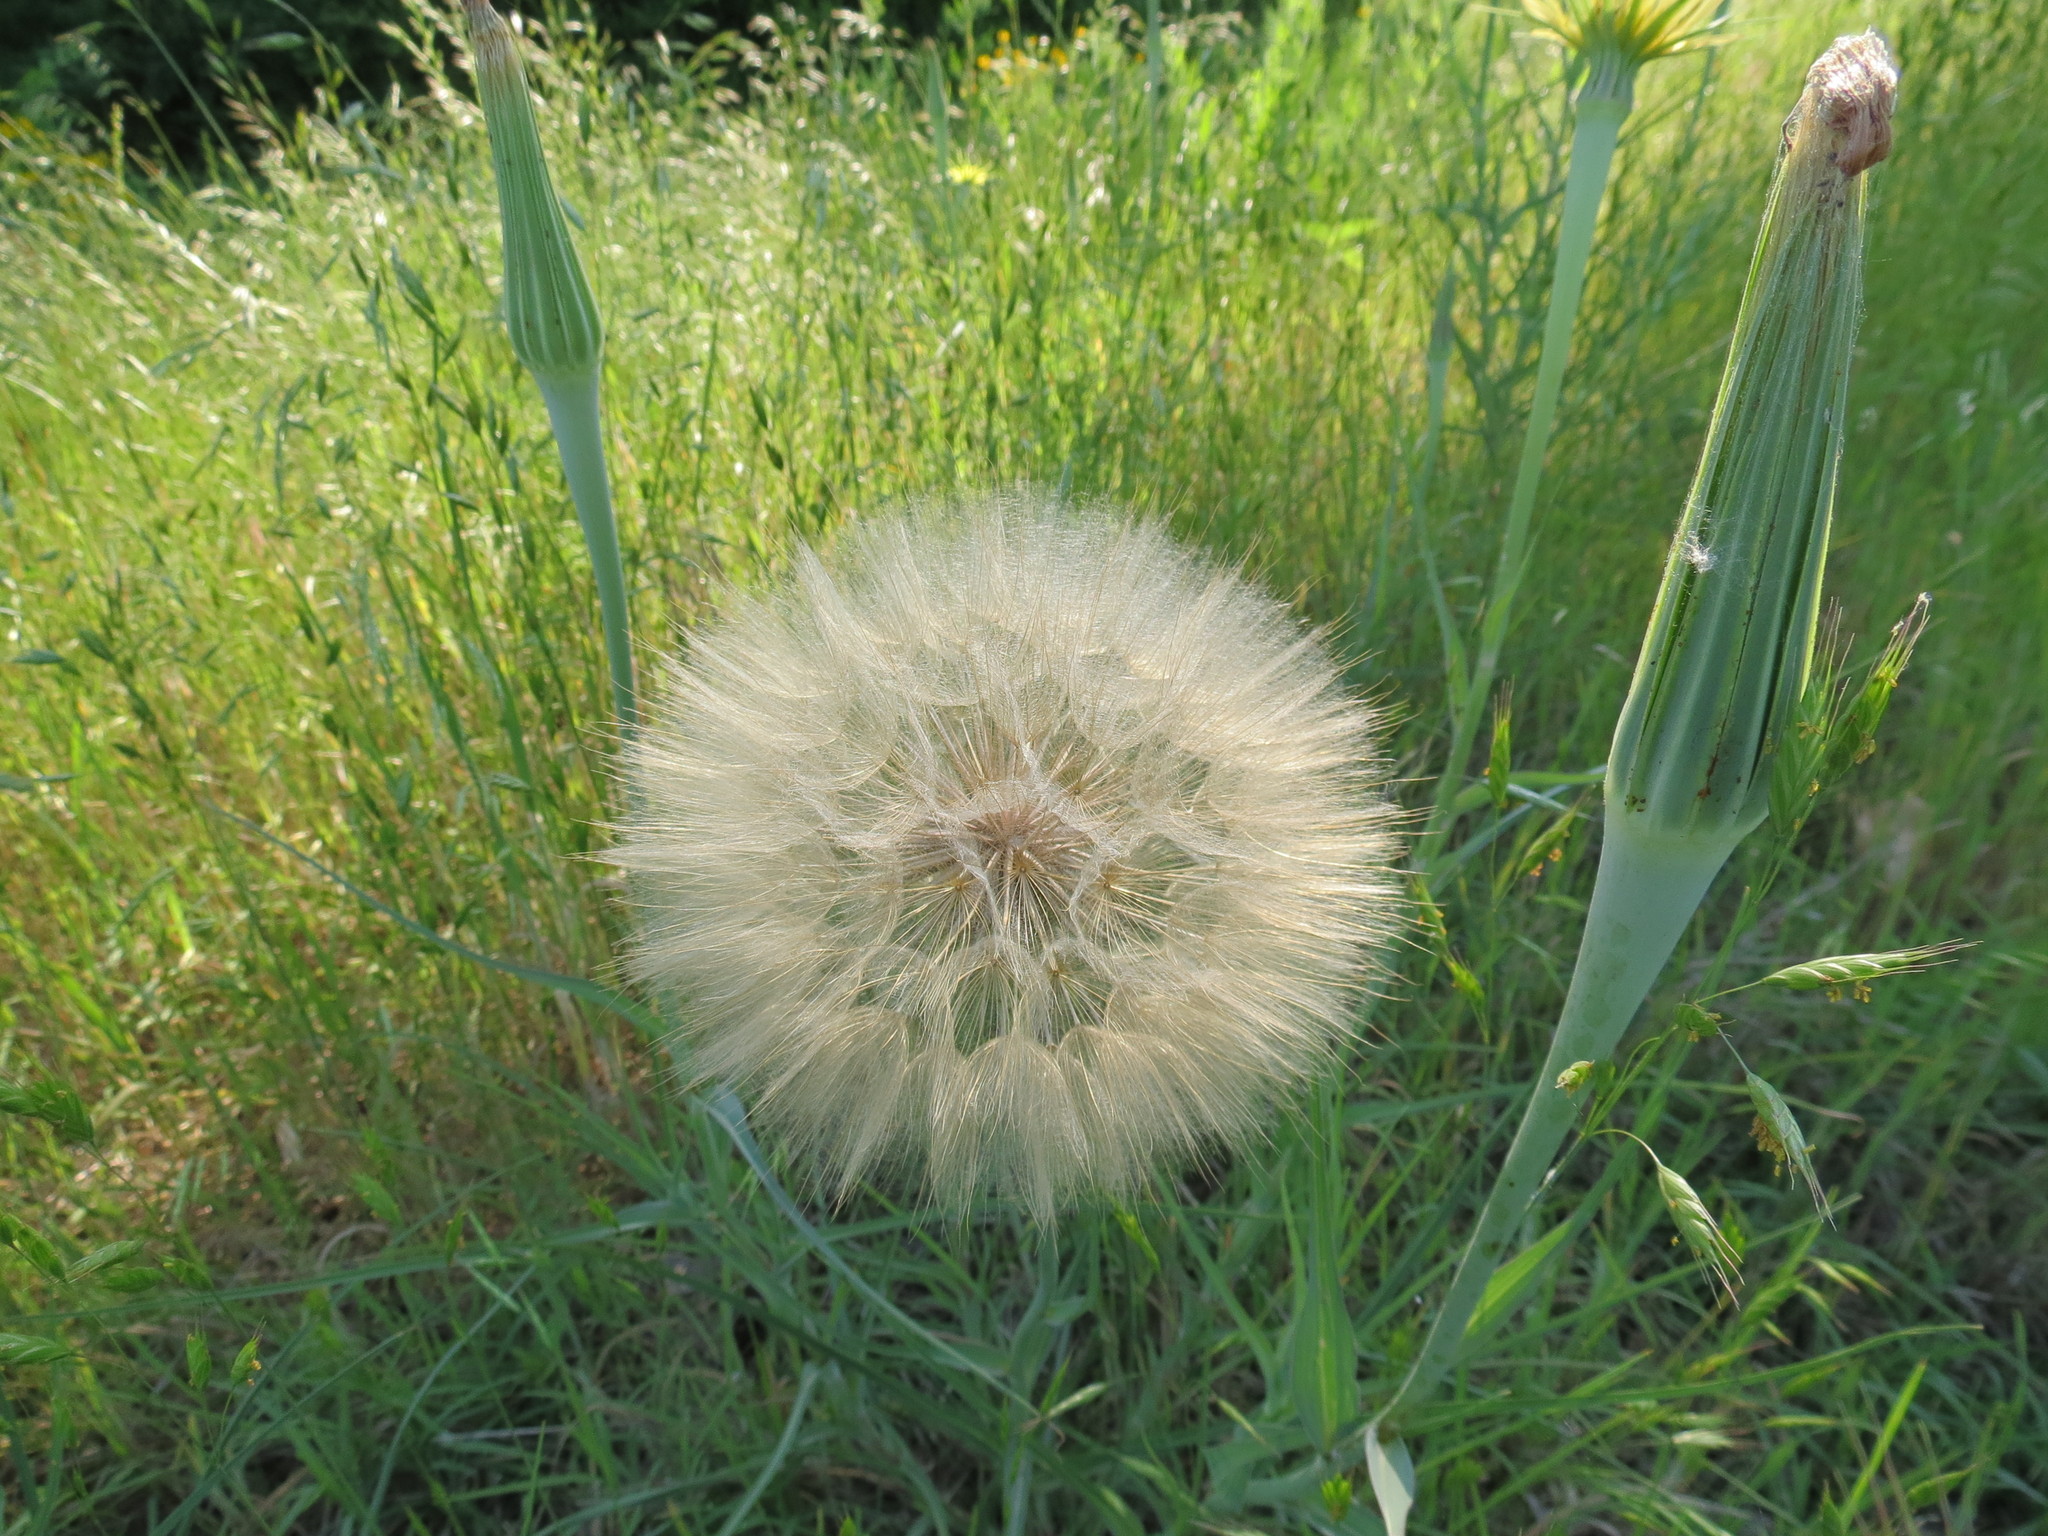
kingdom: Plantae
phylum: Tracheophyta
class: Magnoliopsida
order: Asterales
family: Asteraceae
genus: Tragopogon
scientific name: Tragopogon dubius
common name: Yellow salsify
